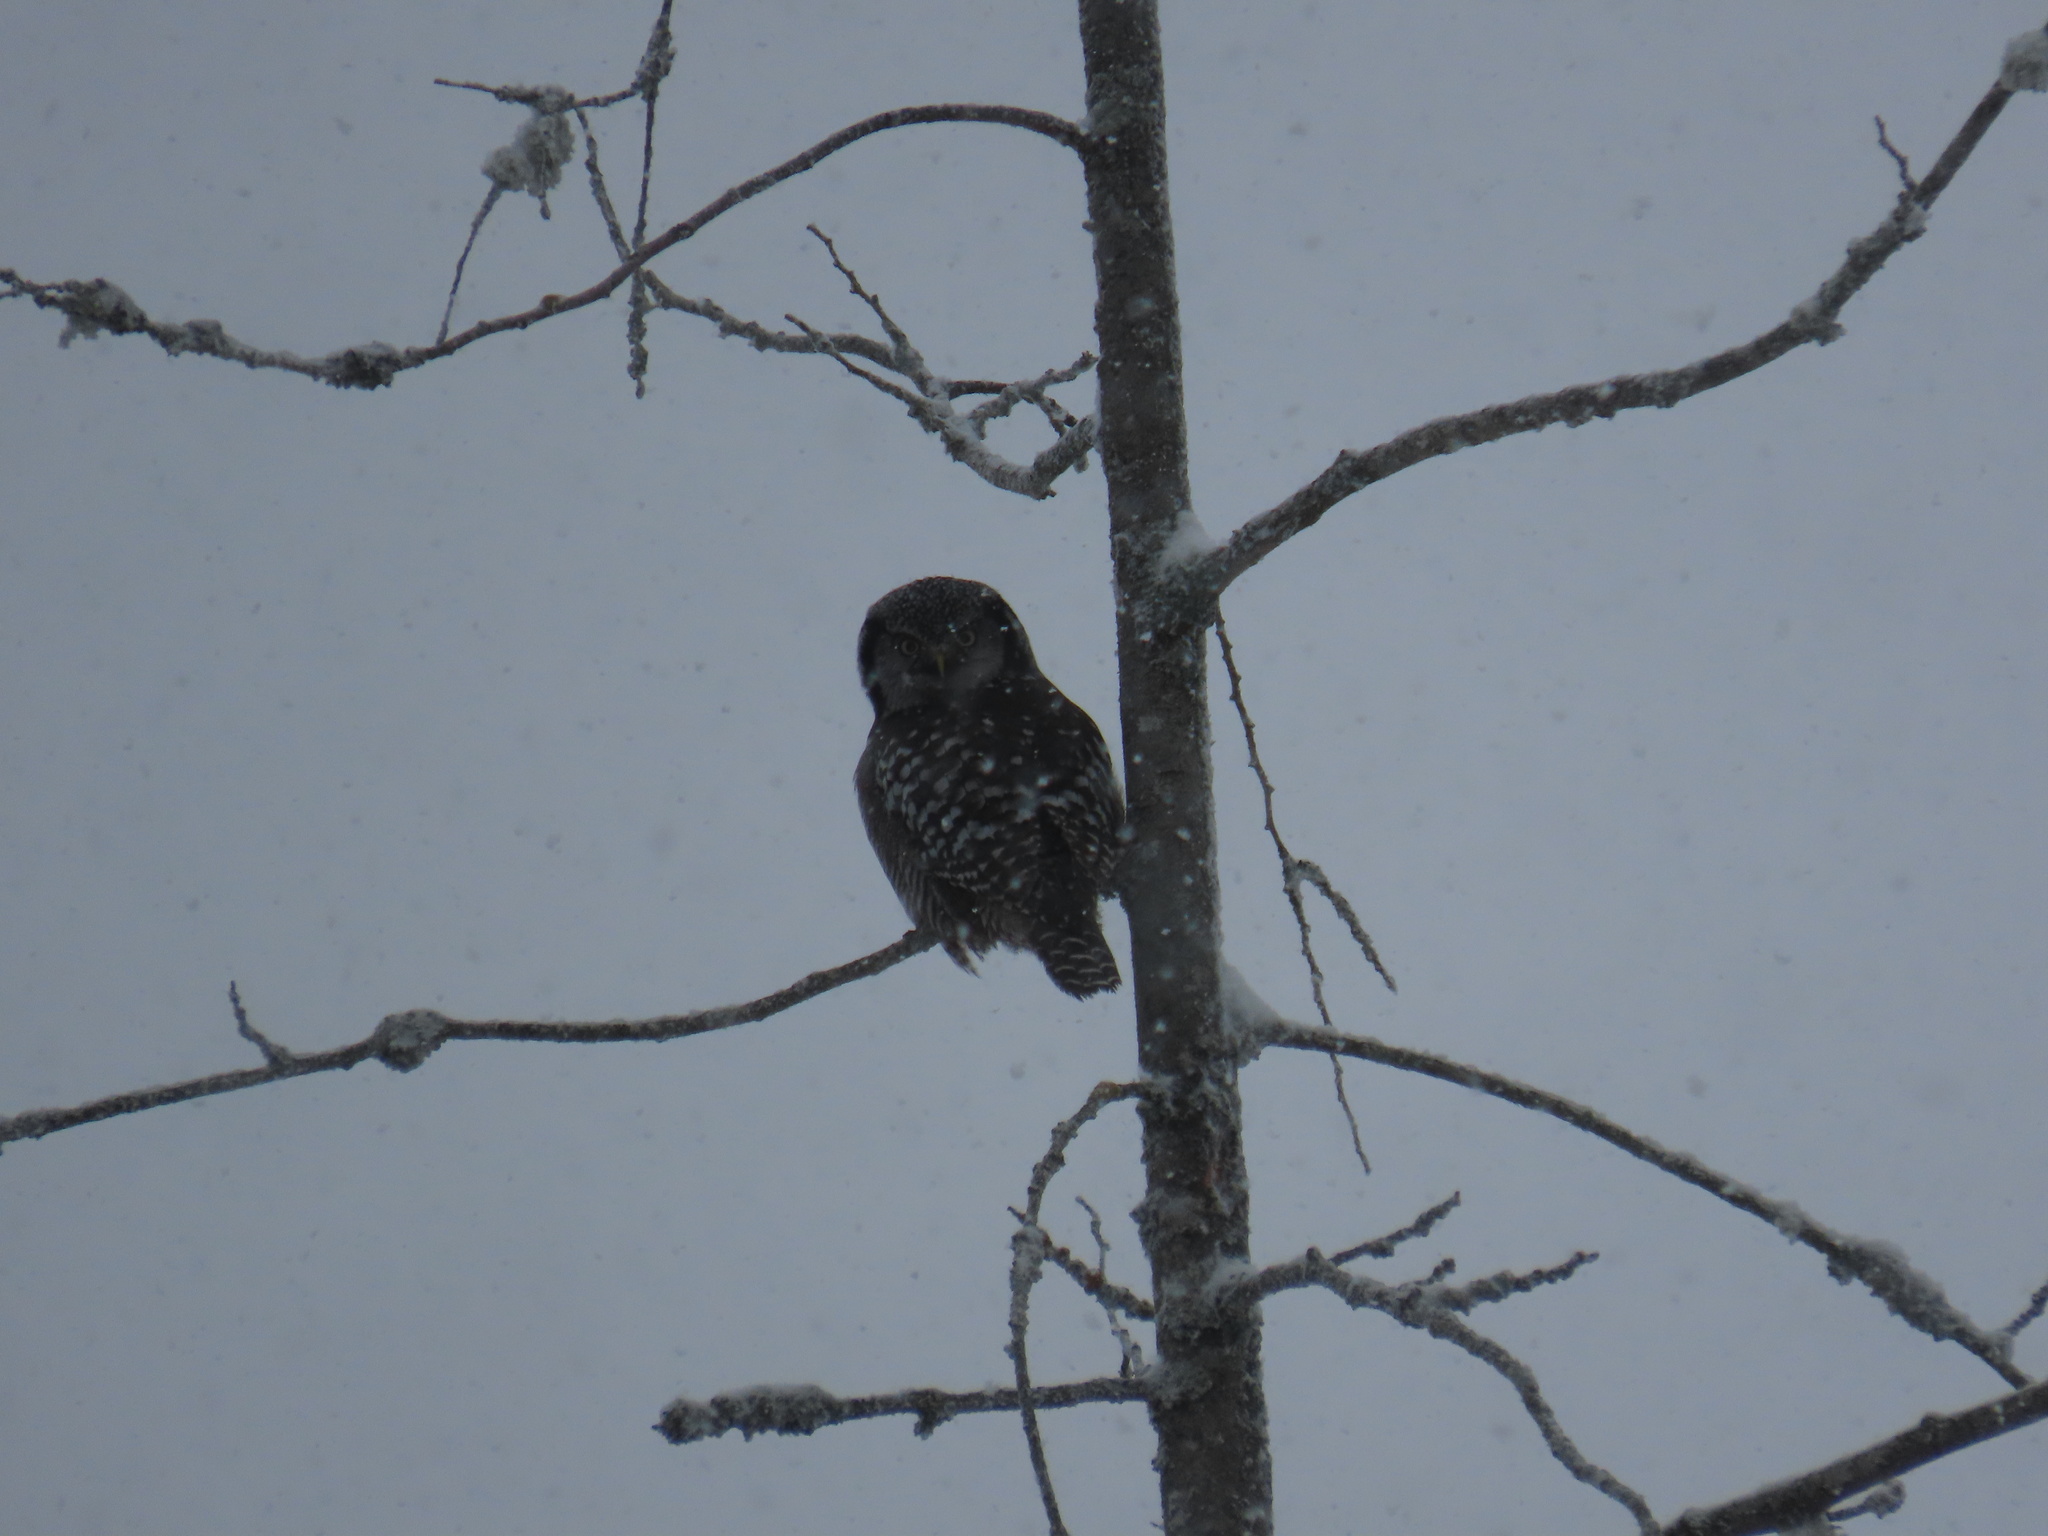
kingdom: Animalia
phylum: Chordata
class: Aves
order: Strigiformes
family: Strigidae
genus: Surnia
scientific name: Surnia ulula
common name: Northern hawk-owl
